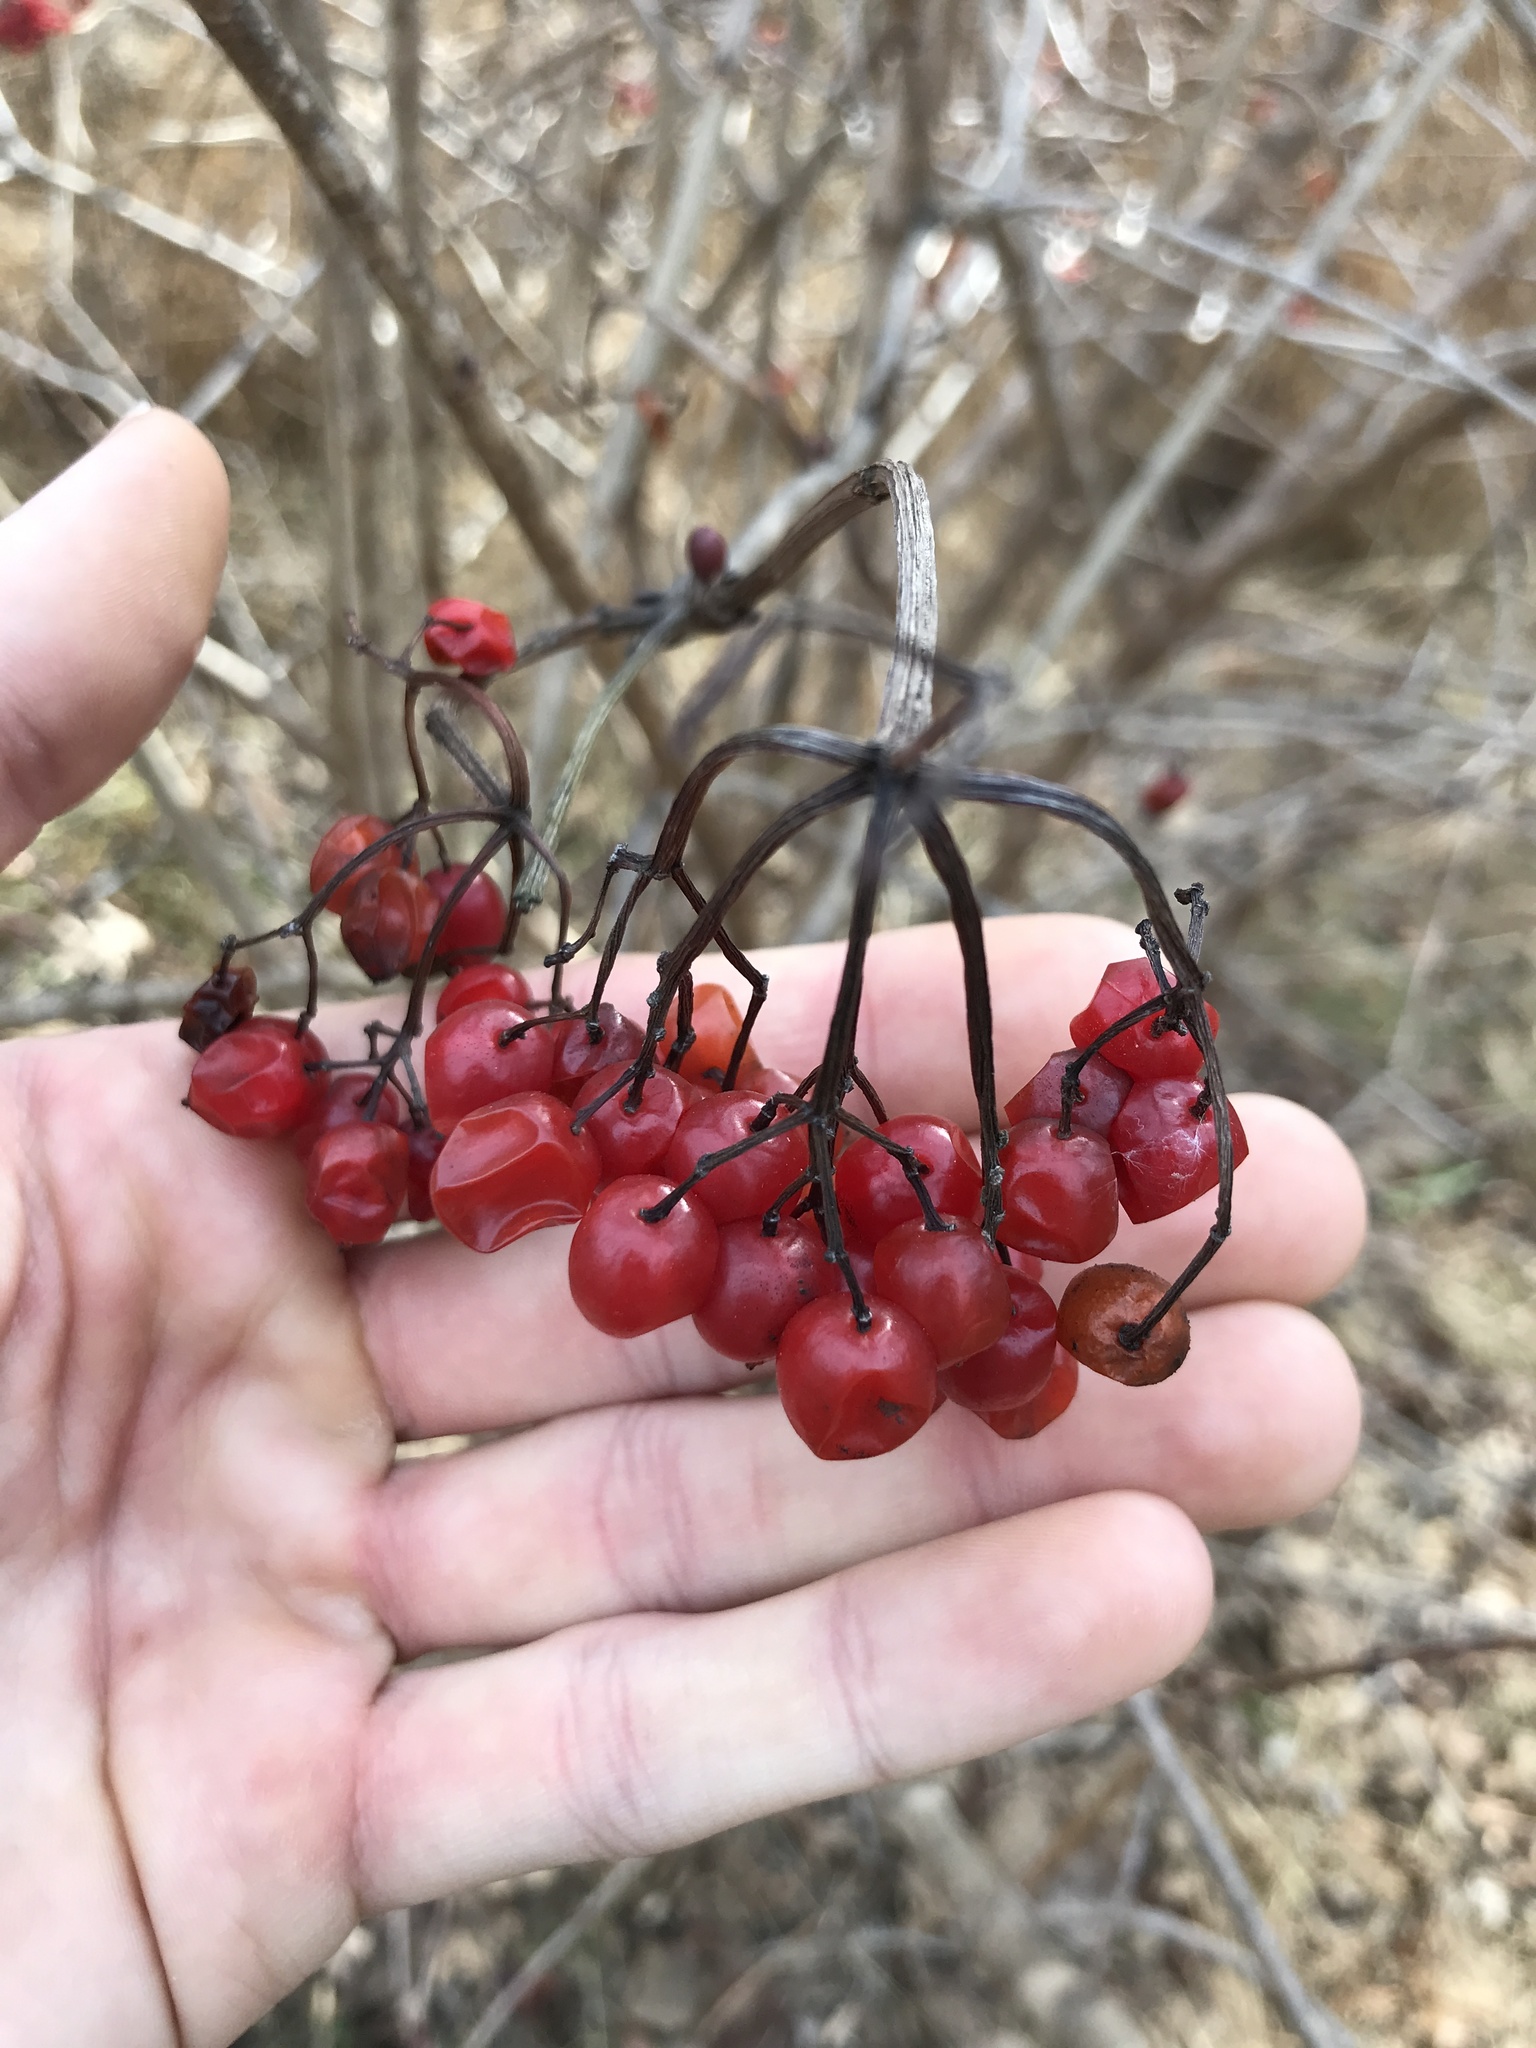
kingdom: Plantae
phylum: Tracheophyta
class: Magnoliopsida
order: Dipsacales
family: Viburnaceae
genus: Viburnum
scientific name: Viburnum opulus
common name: Guelder-rose
